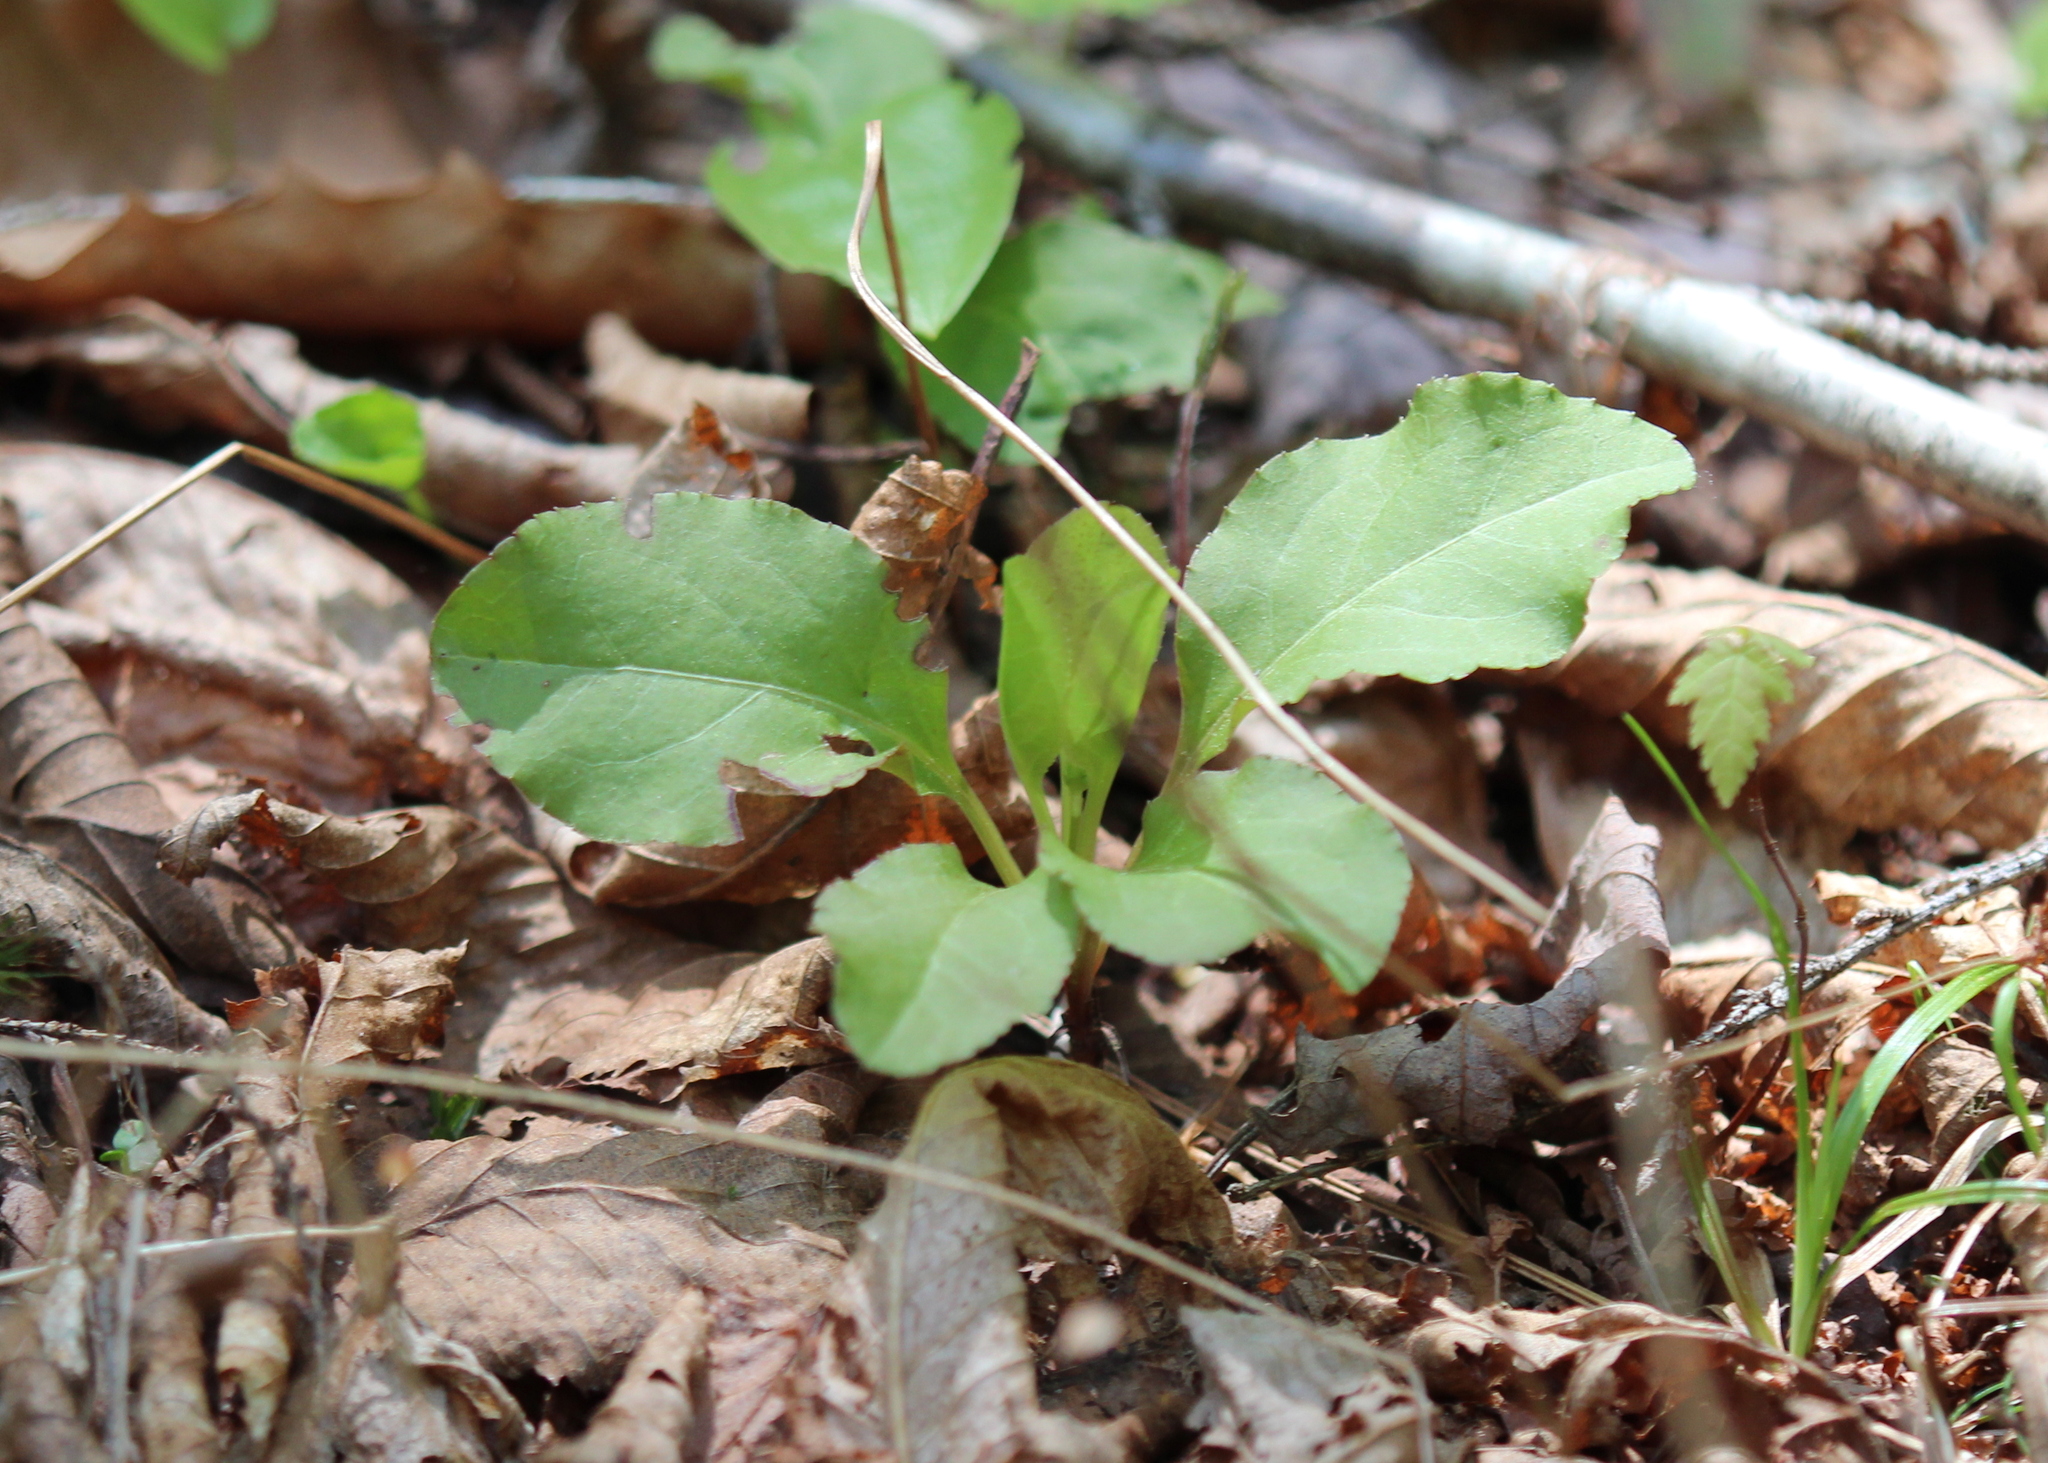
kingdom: Plantae
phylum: Tracheophyta
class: Magnoliopsida
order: Ericales
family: Ericaceae
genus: Pyrola
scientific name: Pyrola elliptica
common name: Shinleaf
